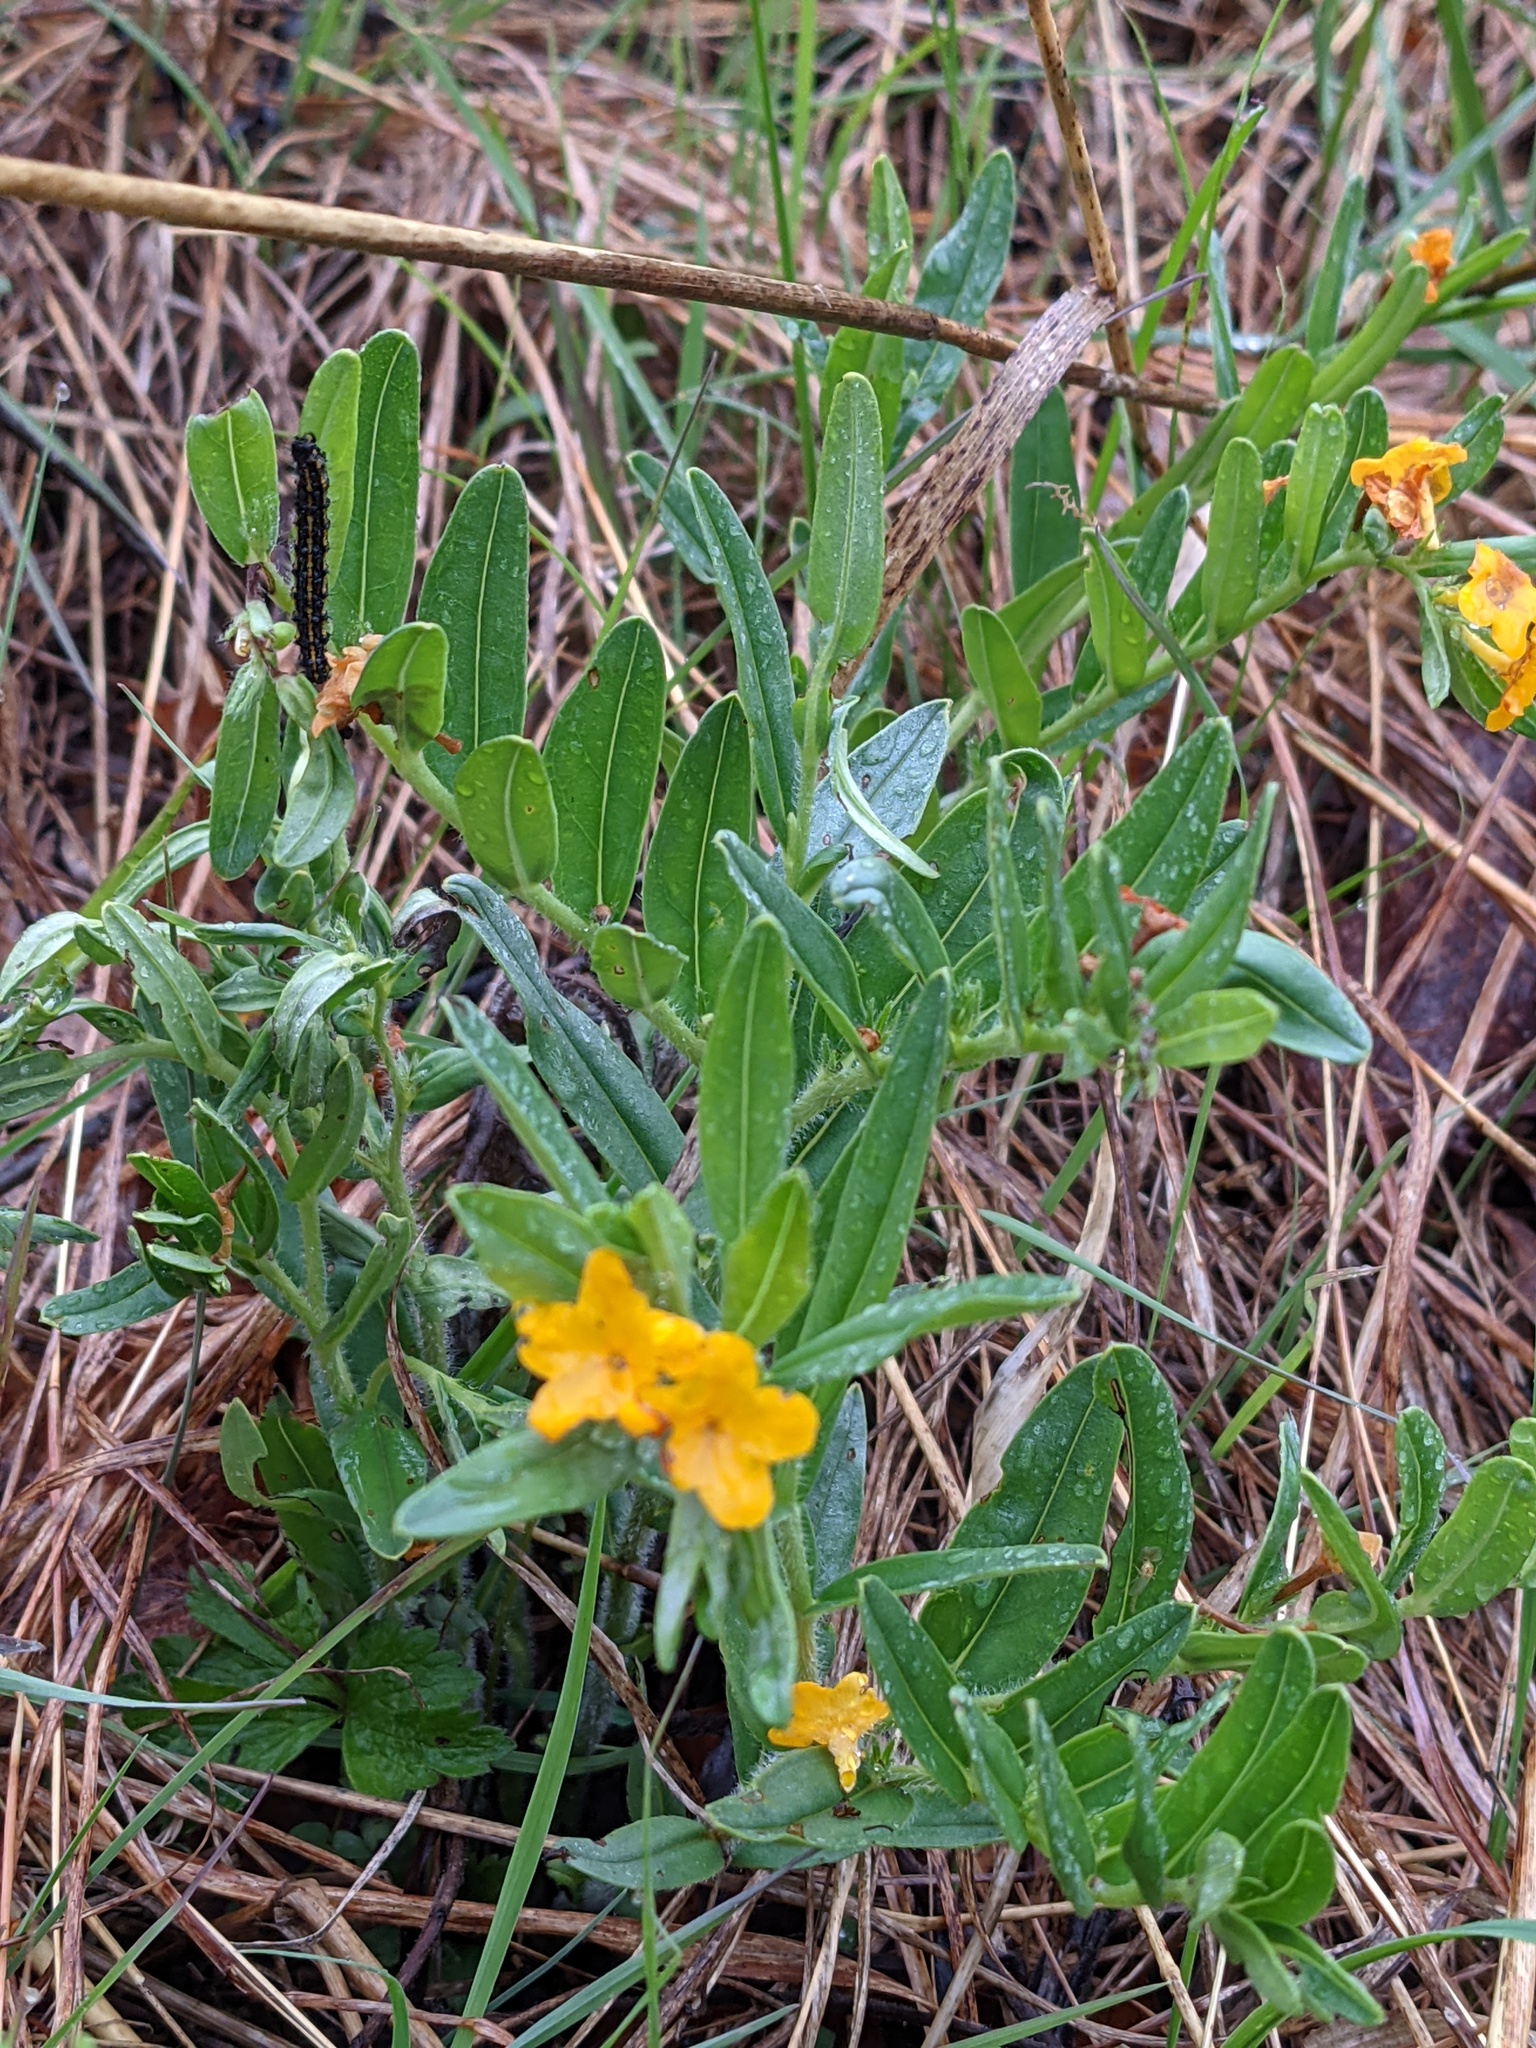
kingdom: Plantae
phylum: Tracheophyta
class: Magnoliopsida
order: Boraginales
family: Boraginaceae
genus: Lithospermum
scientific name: Lithospermum canescens
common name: Hoary puccoon
